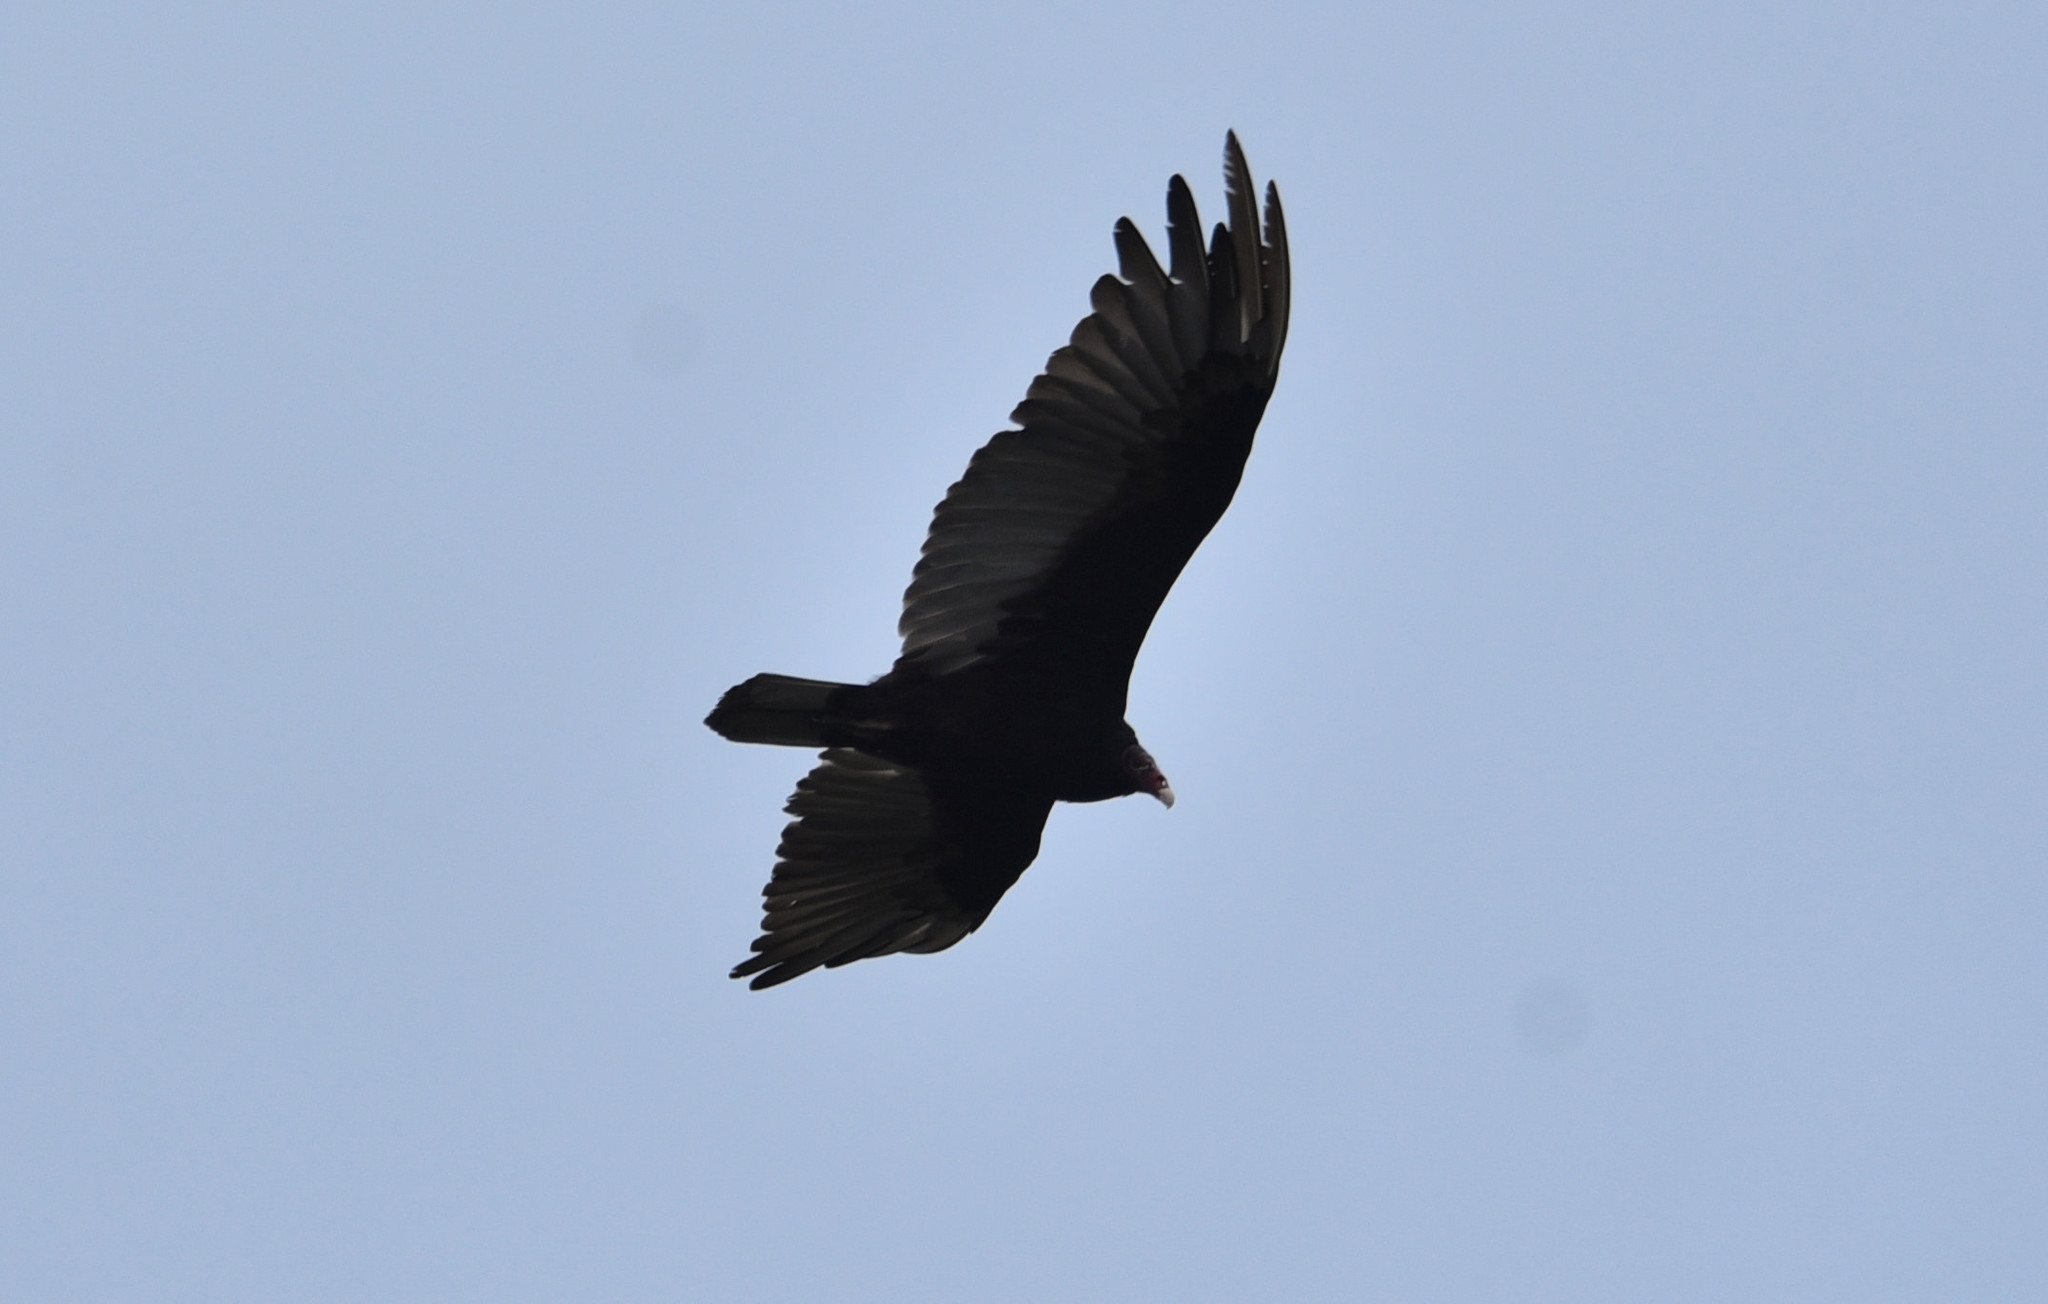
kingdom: Animalia
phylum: Chordata
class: Aves
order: Accipitriformes
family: Cathartidae
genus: Cathartes
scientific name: Cathartes aura
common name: Turkey vulture
